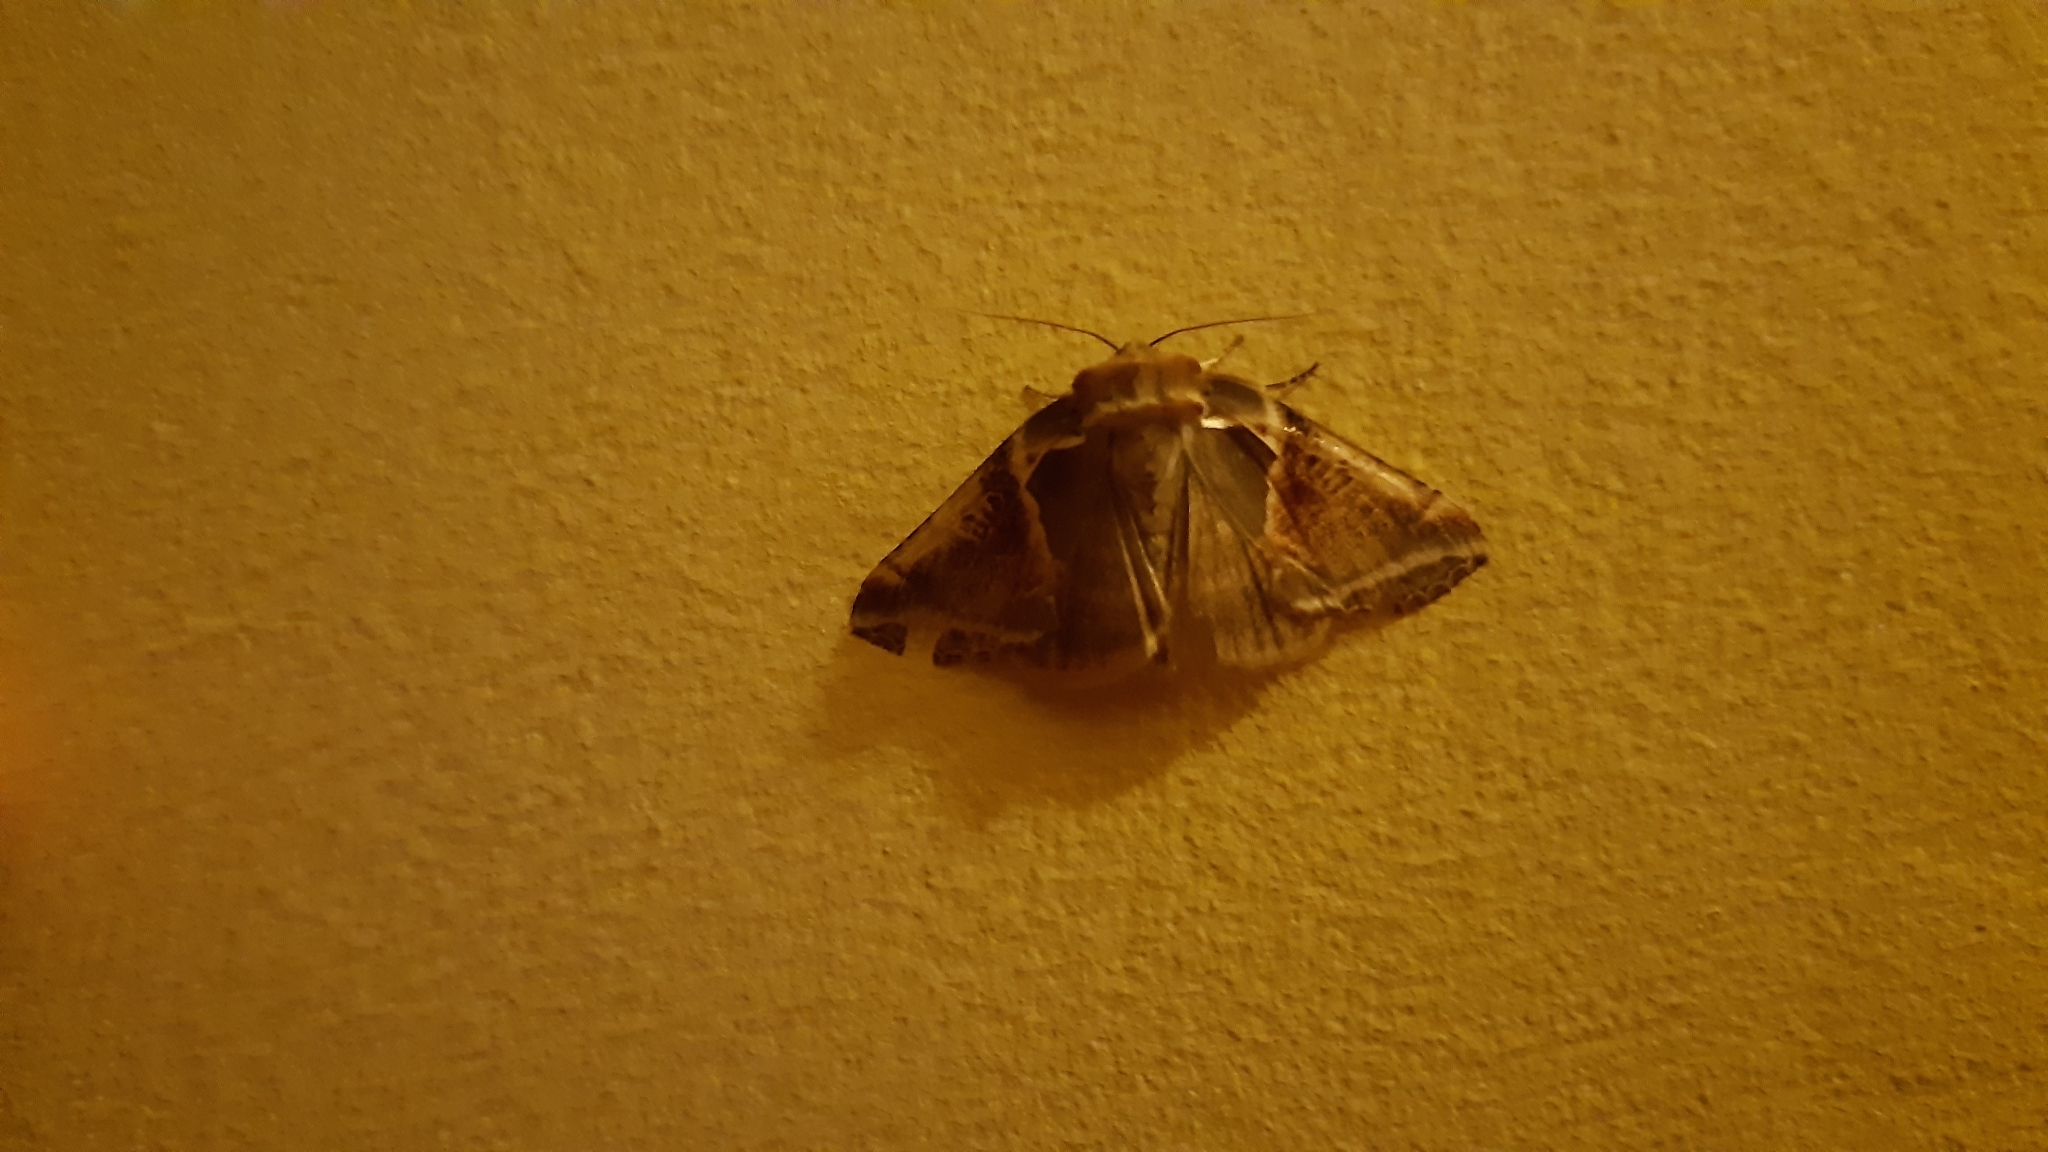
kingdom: Animalia
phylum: Arthropoda
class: Insecta
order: Lepidoptera
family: Drepanidae
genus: Habrosyne
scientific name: Habrosyne pyritoides
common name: Buff arches
